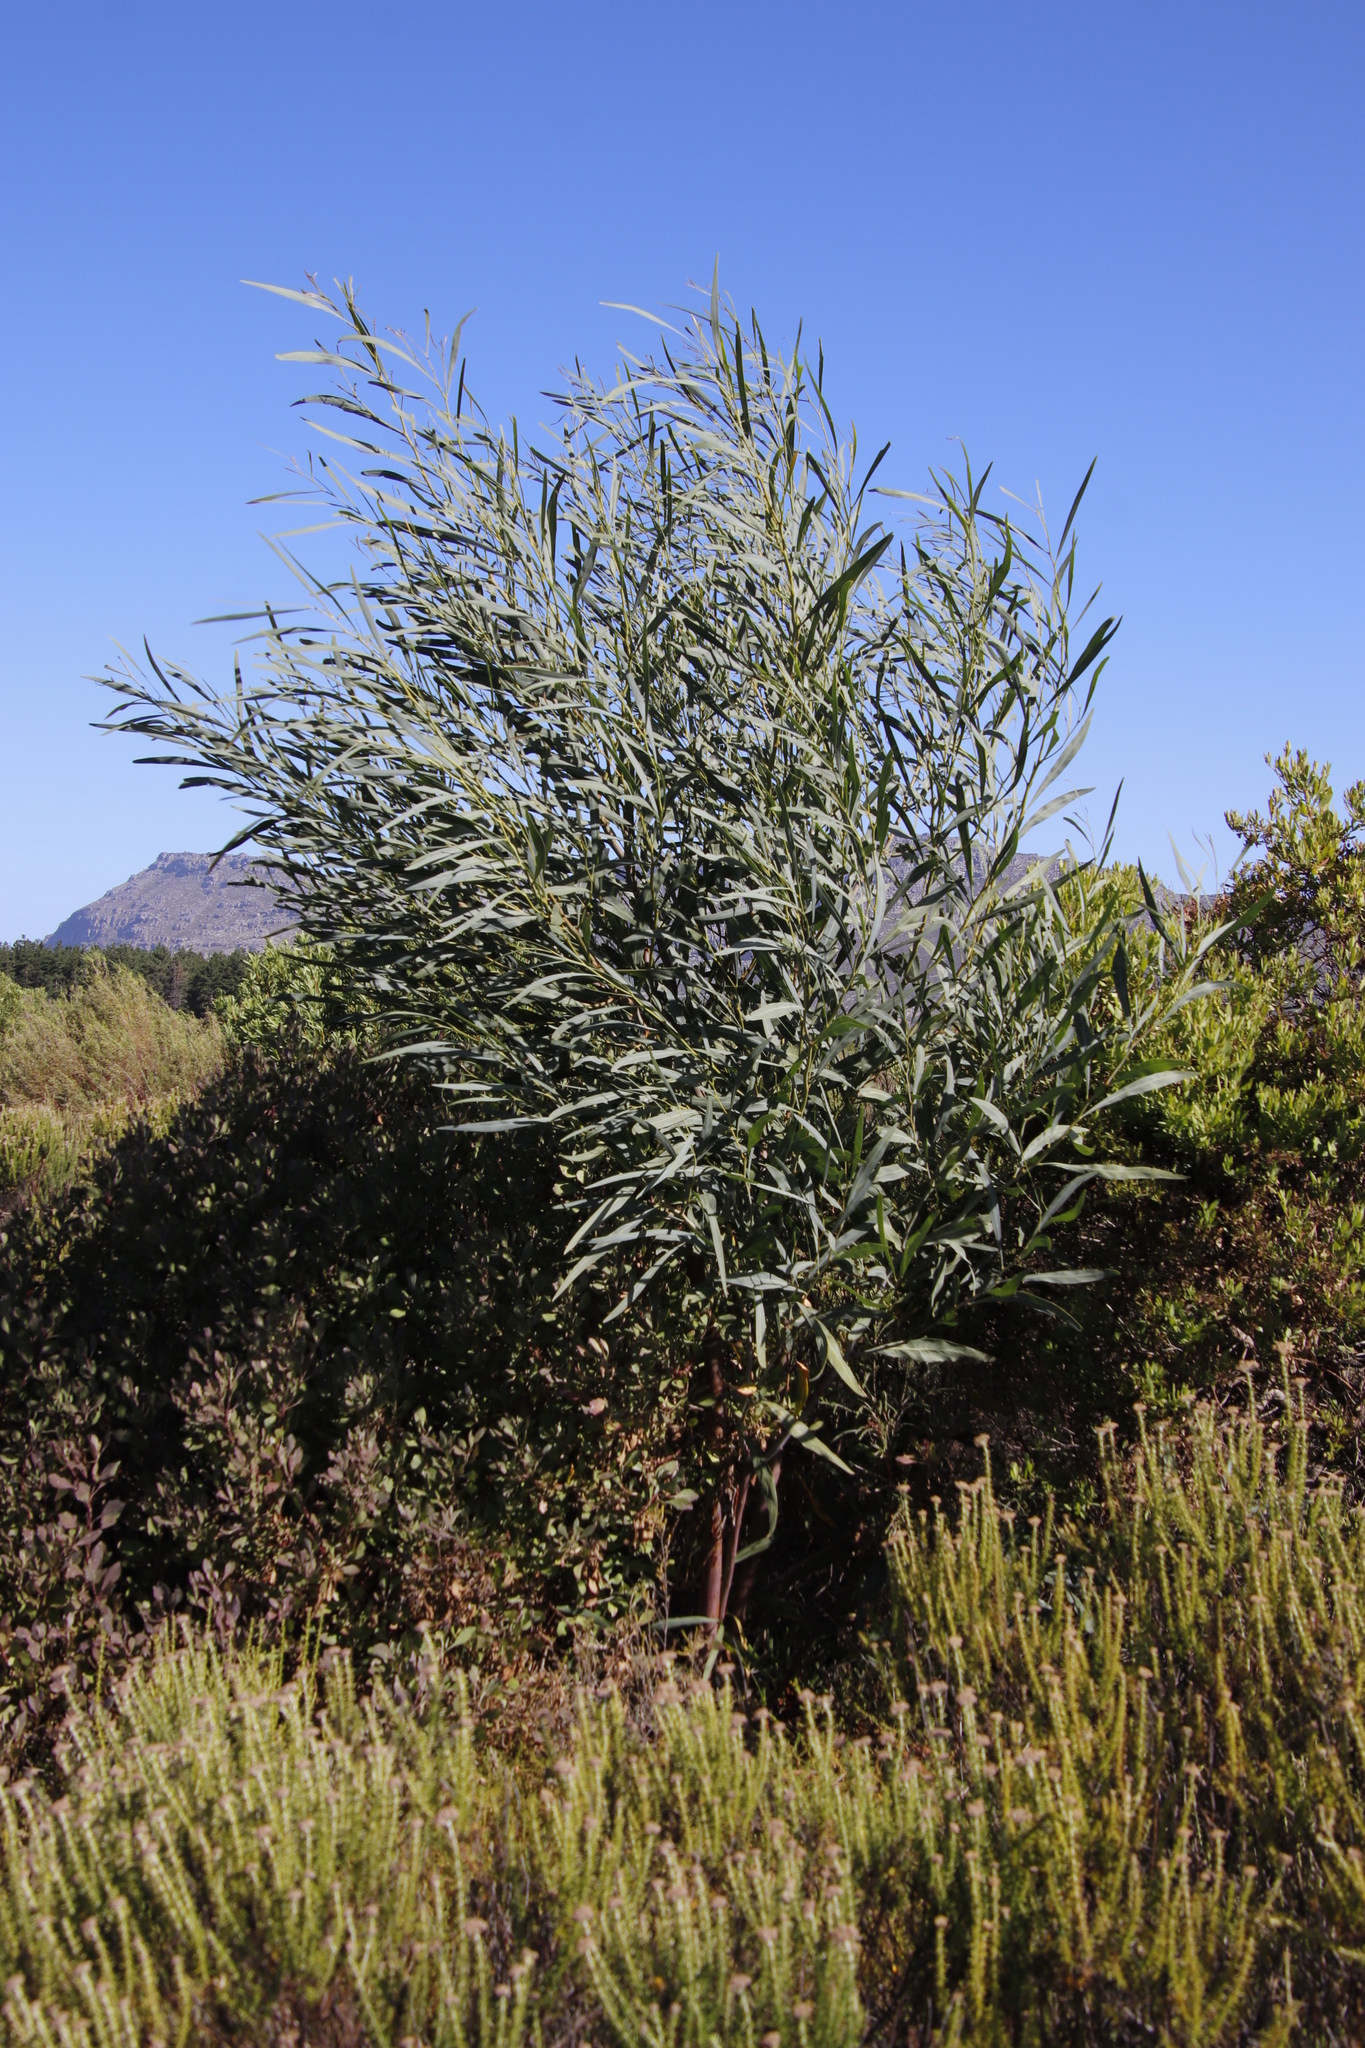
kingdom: Plantae
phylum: Tracheophyta
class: Magnoliopsida
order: Fabales
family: Fabaceae
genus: Acacia
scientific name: Acacia saligna
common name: Orange wattle
